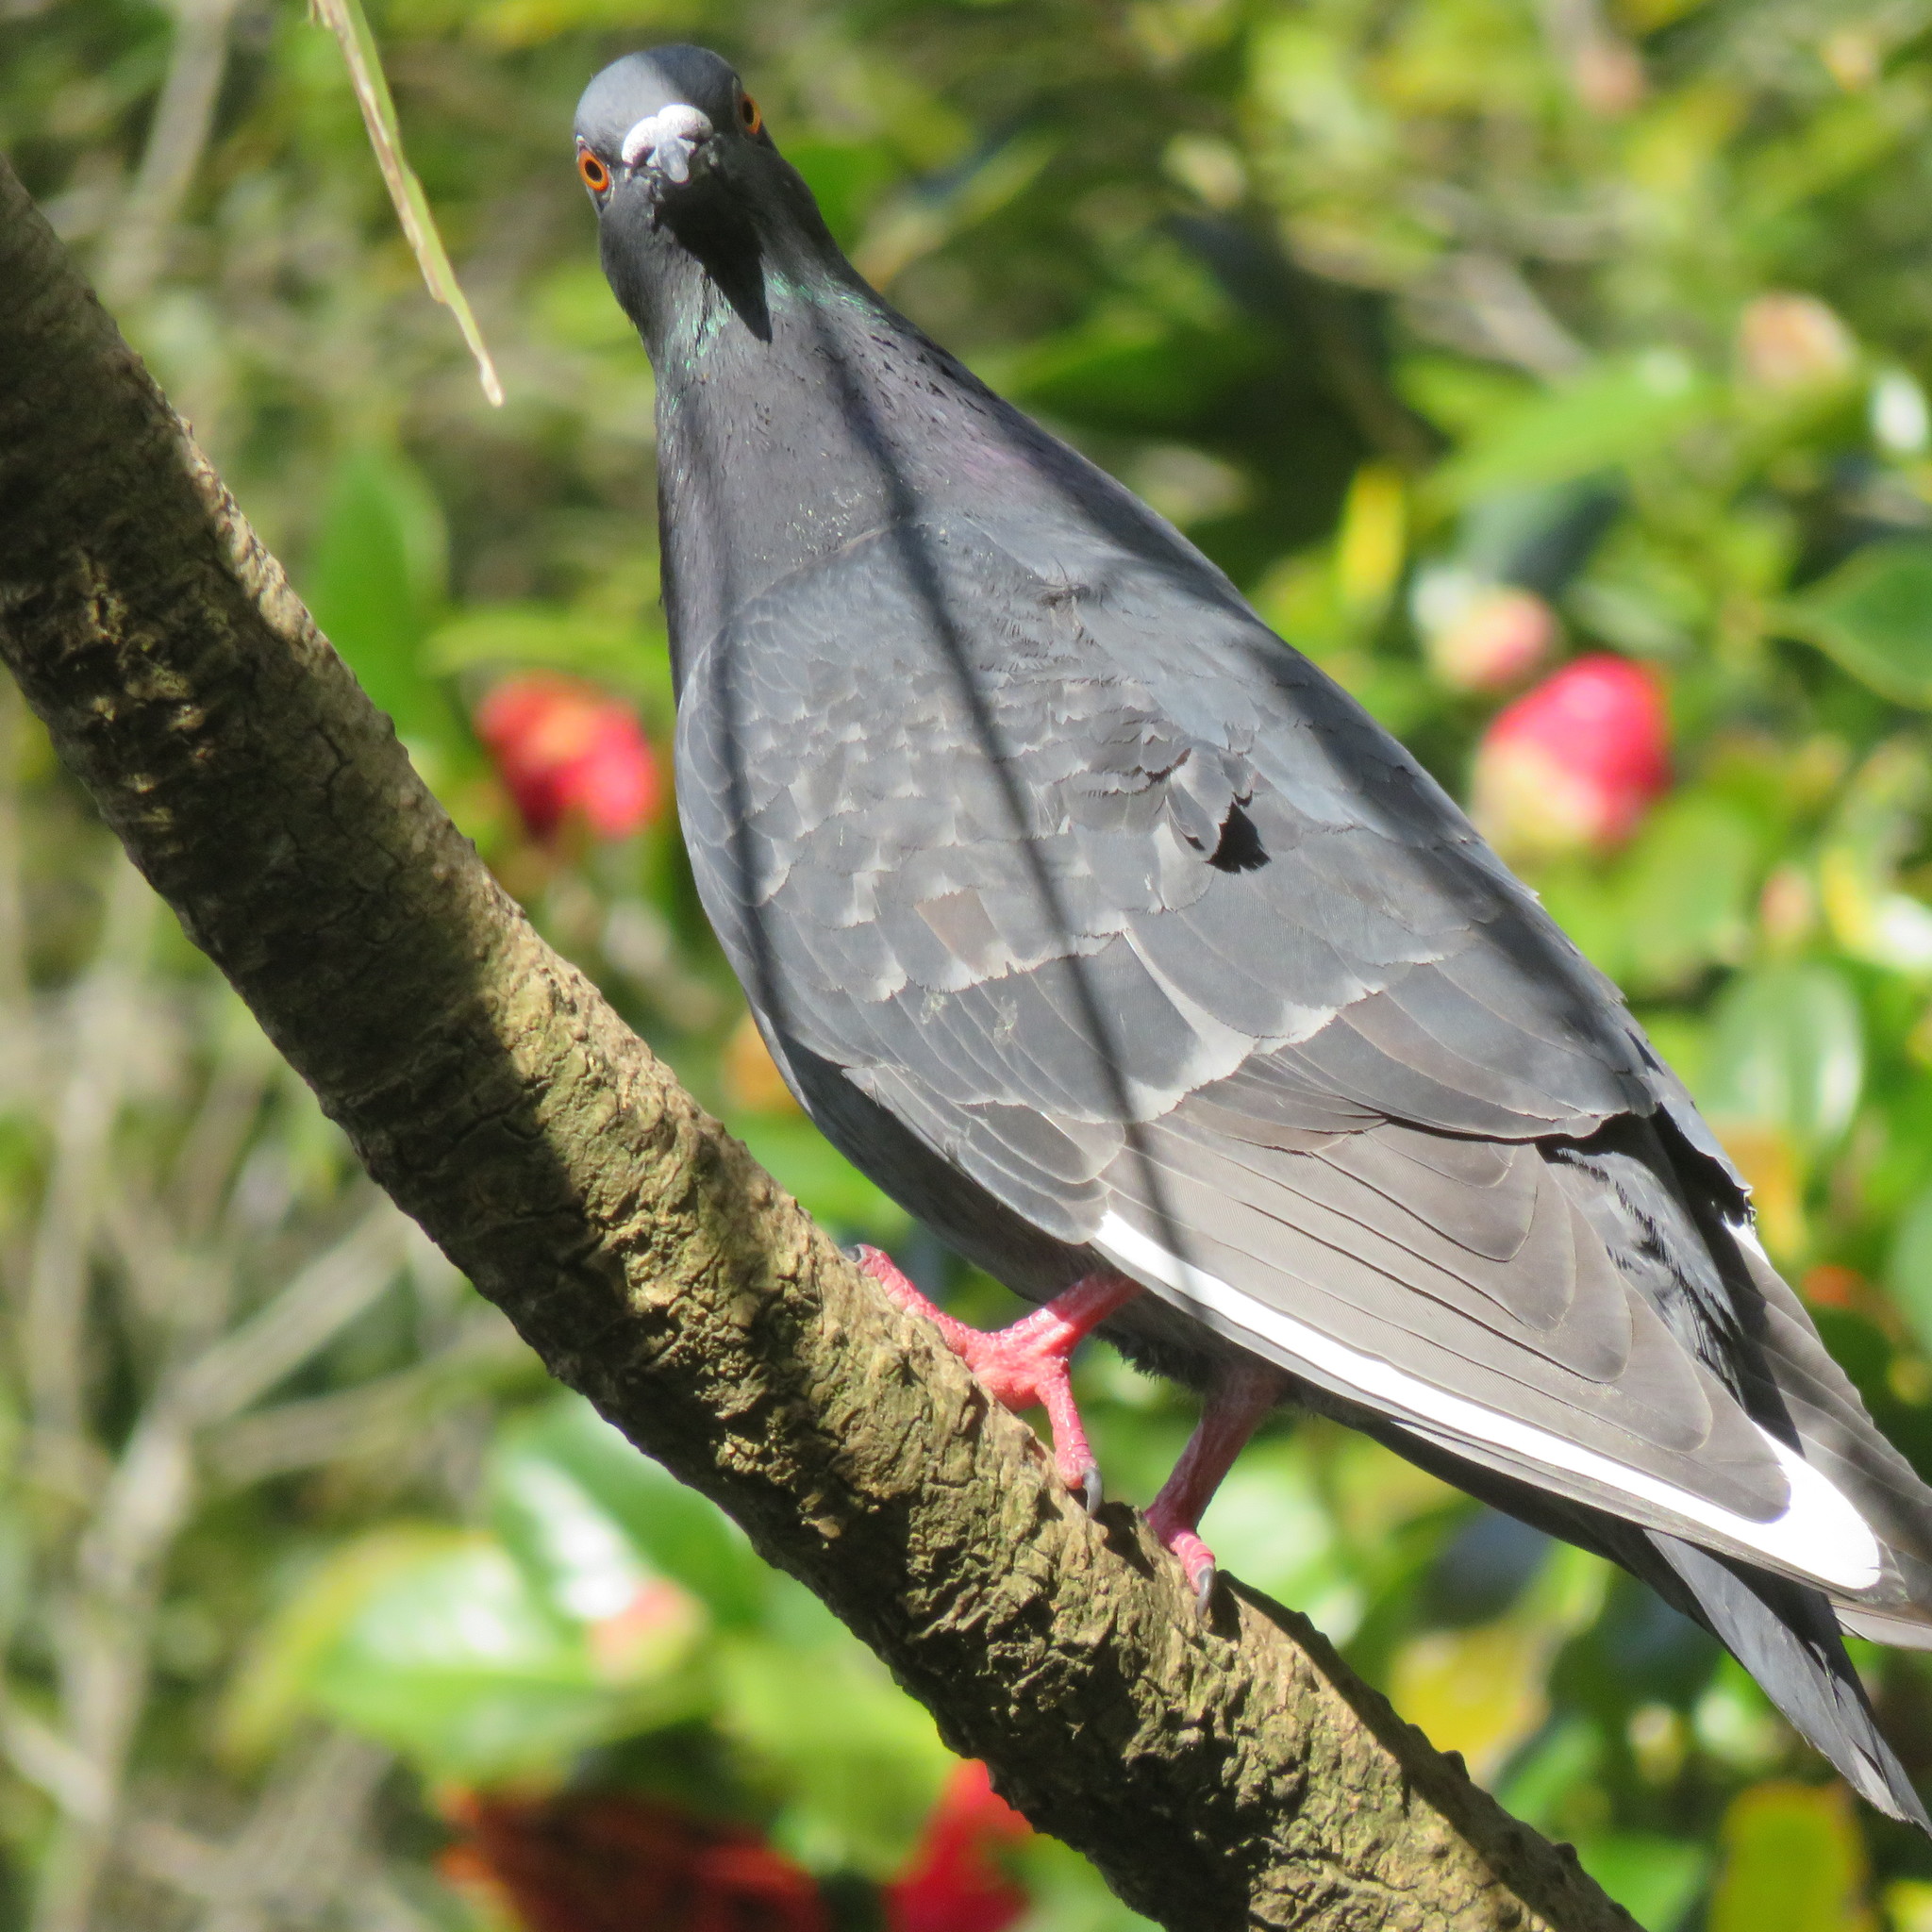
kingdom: Animalia
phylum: Chordata
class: Aves
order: Columbiformes
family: Columbidae
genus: Columba
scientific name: Columba livia
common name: Rock pigeon
